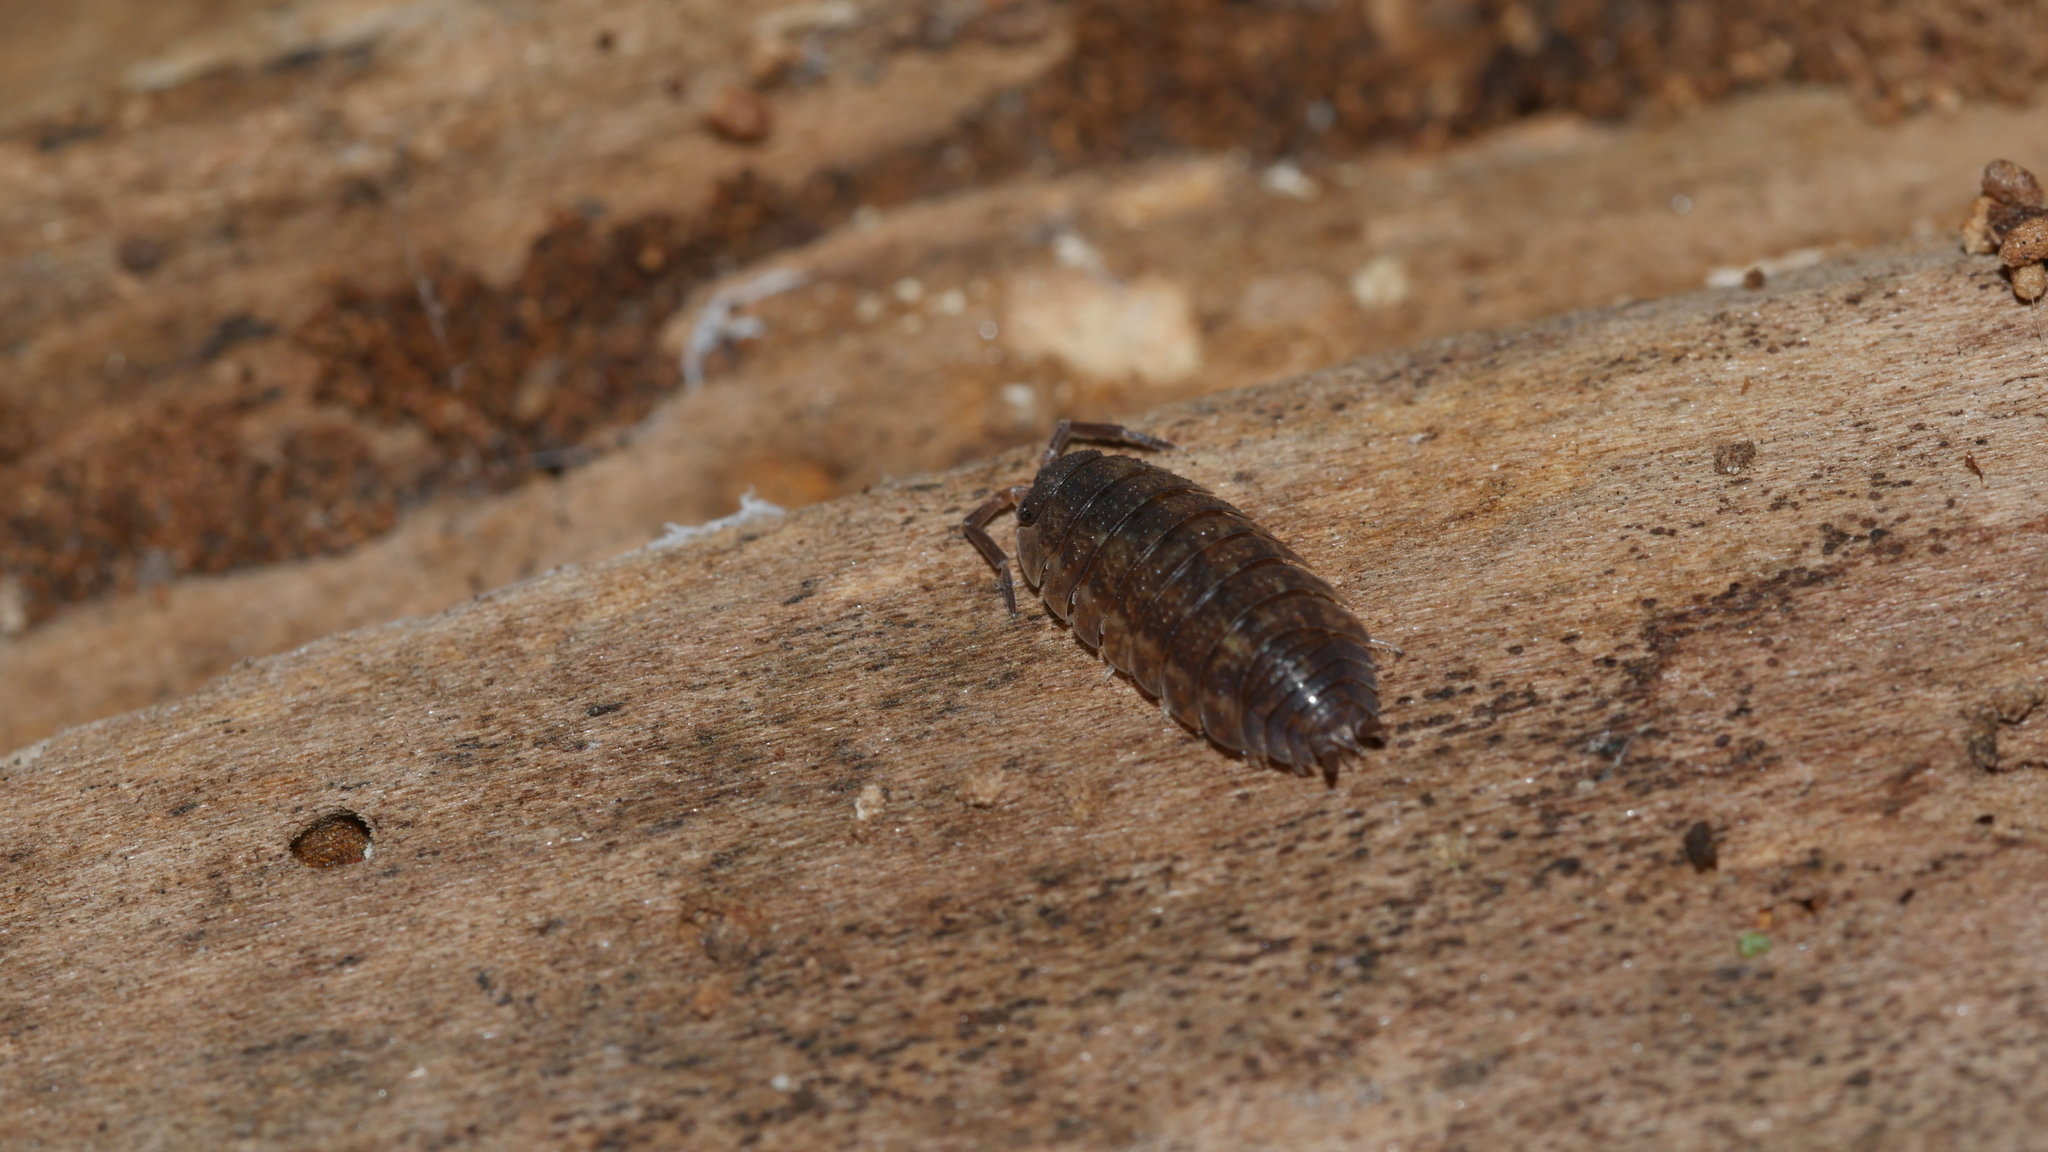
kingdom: Animalia
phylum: Arthropoda
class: Malacostraca
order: Isopoda
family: Porcellionidae
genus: Porcellio
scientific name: Porcellio scaber
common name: Common rough woodlouse
